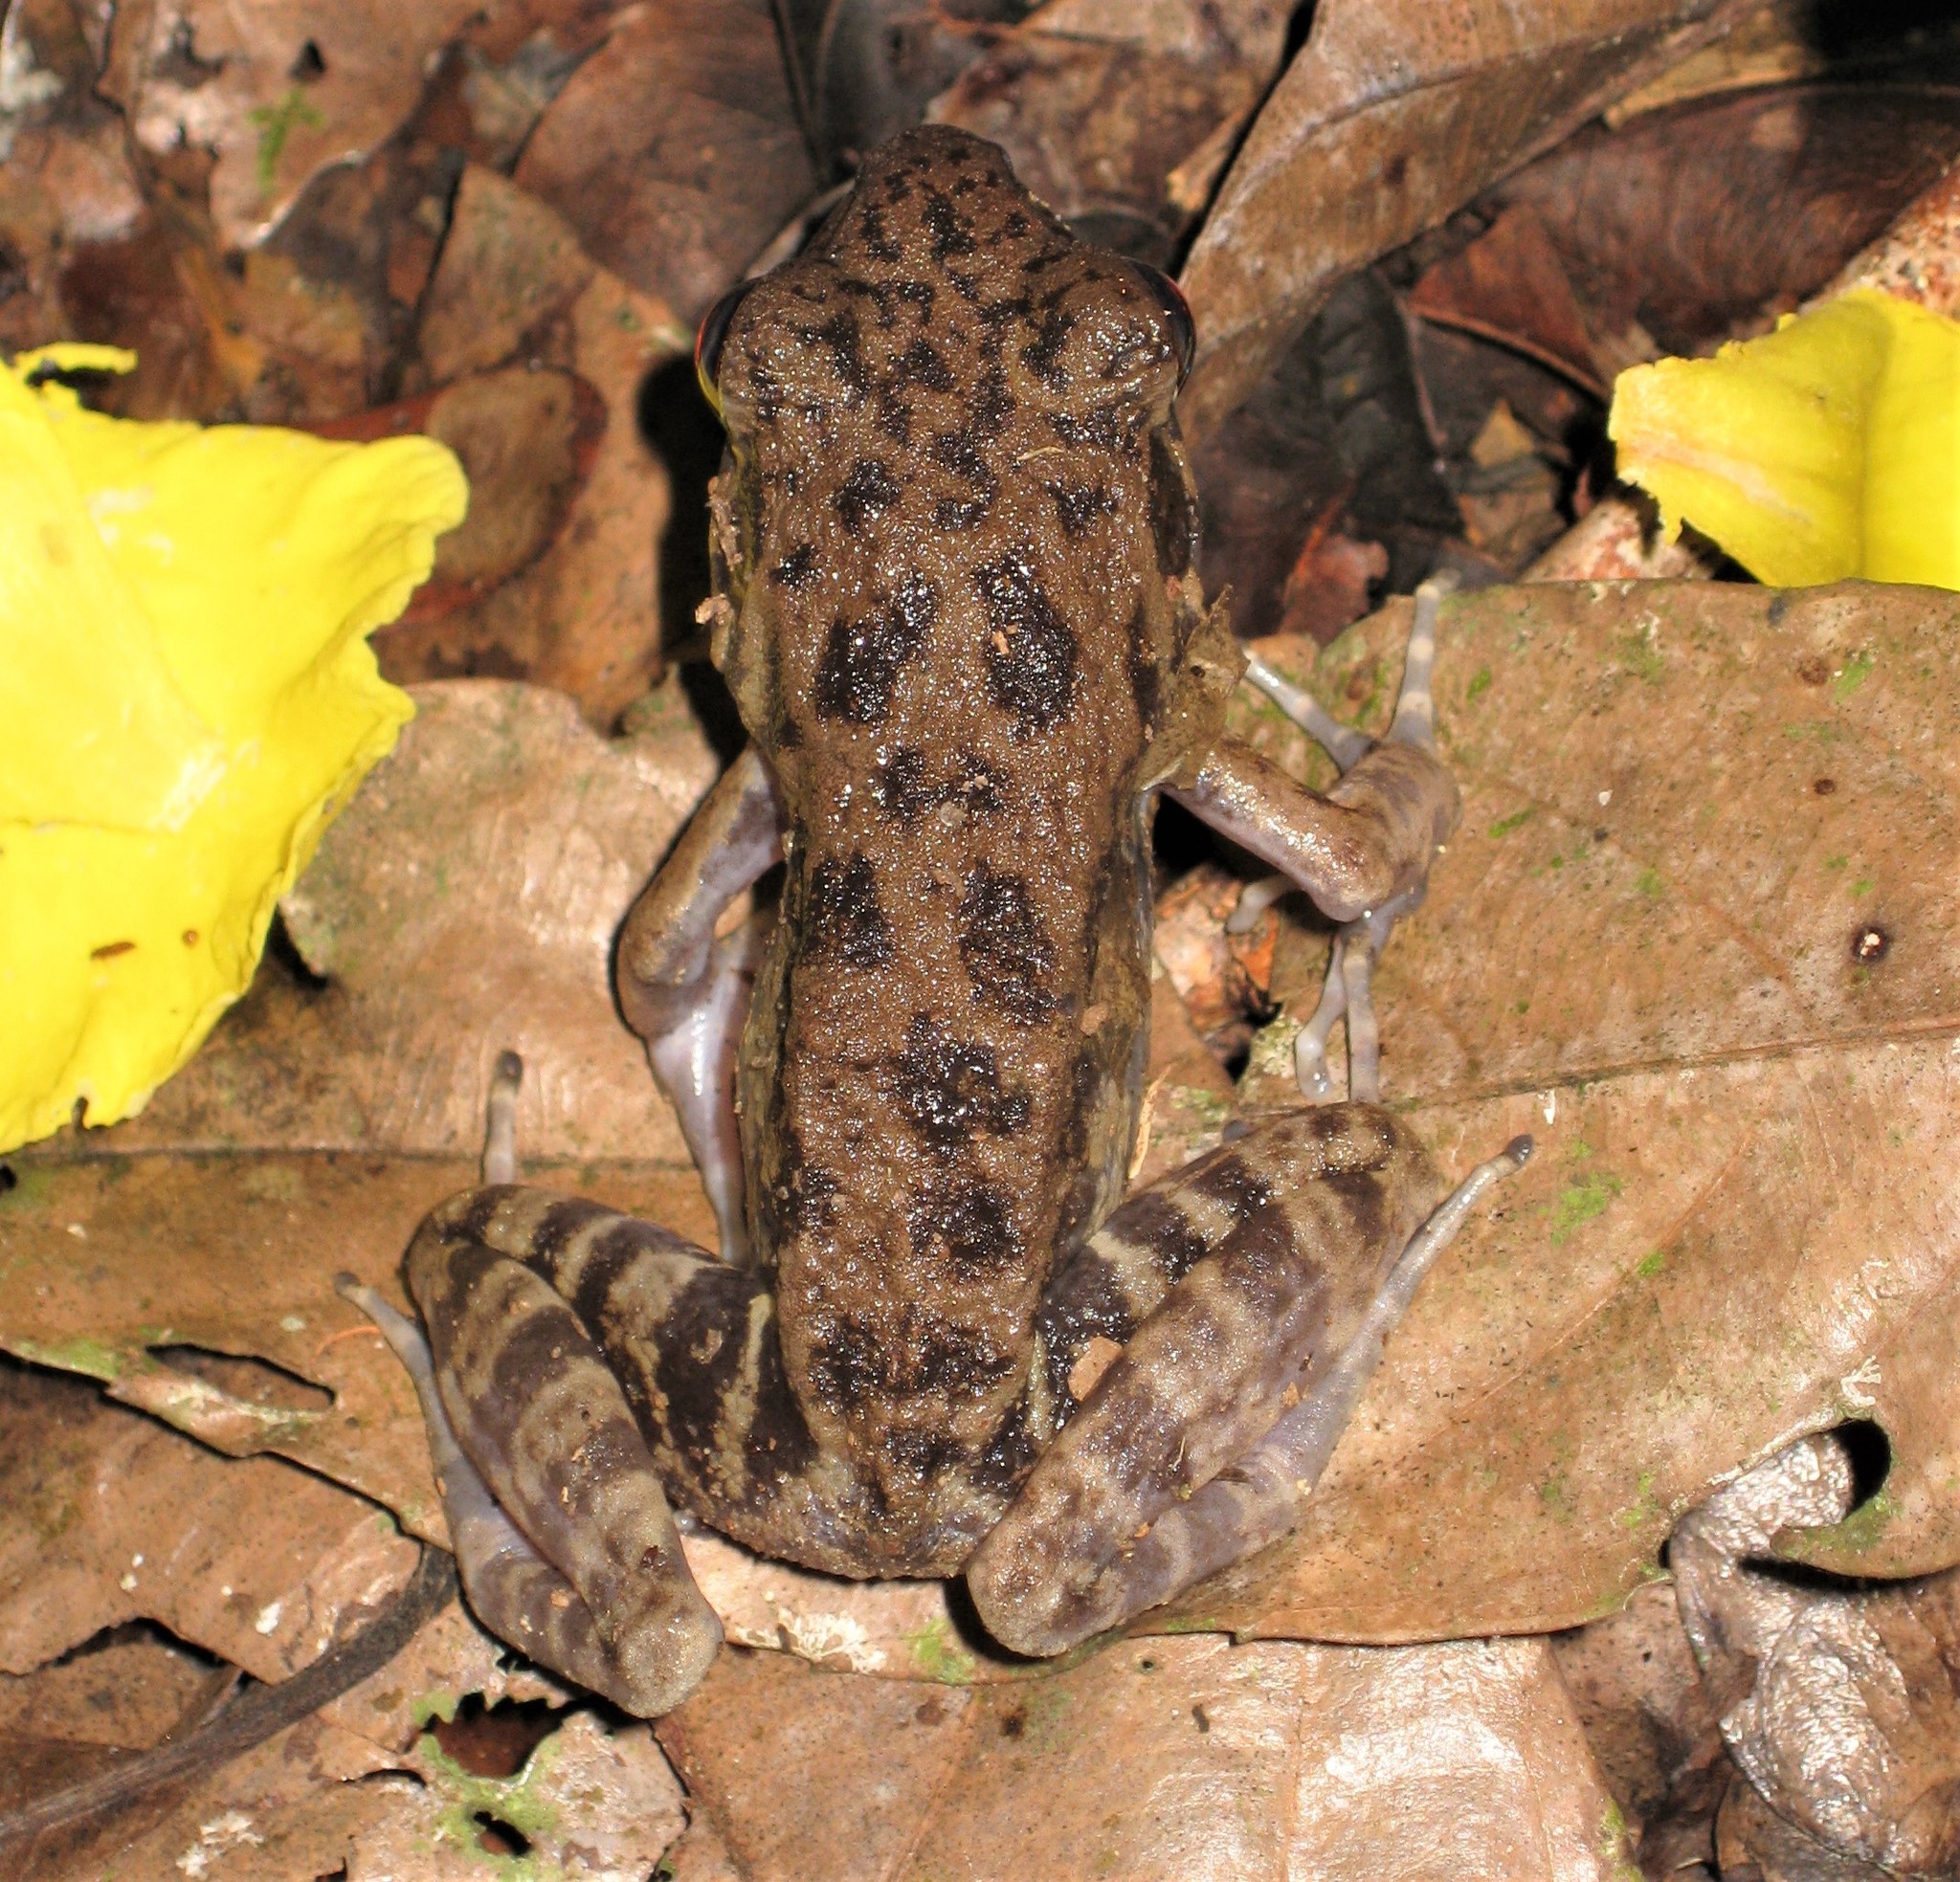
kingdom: Animalia
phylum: Chordata
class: Amphibia
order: Anura
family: Ranidae
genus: Pulchrana
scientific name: Pulchrana glandulosa
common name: Rough-sided frog
